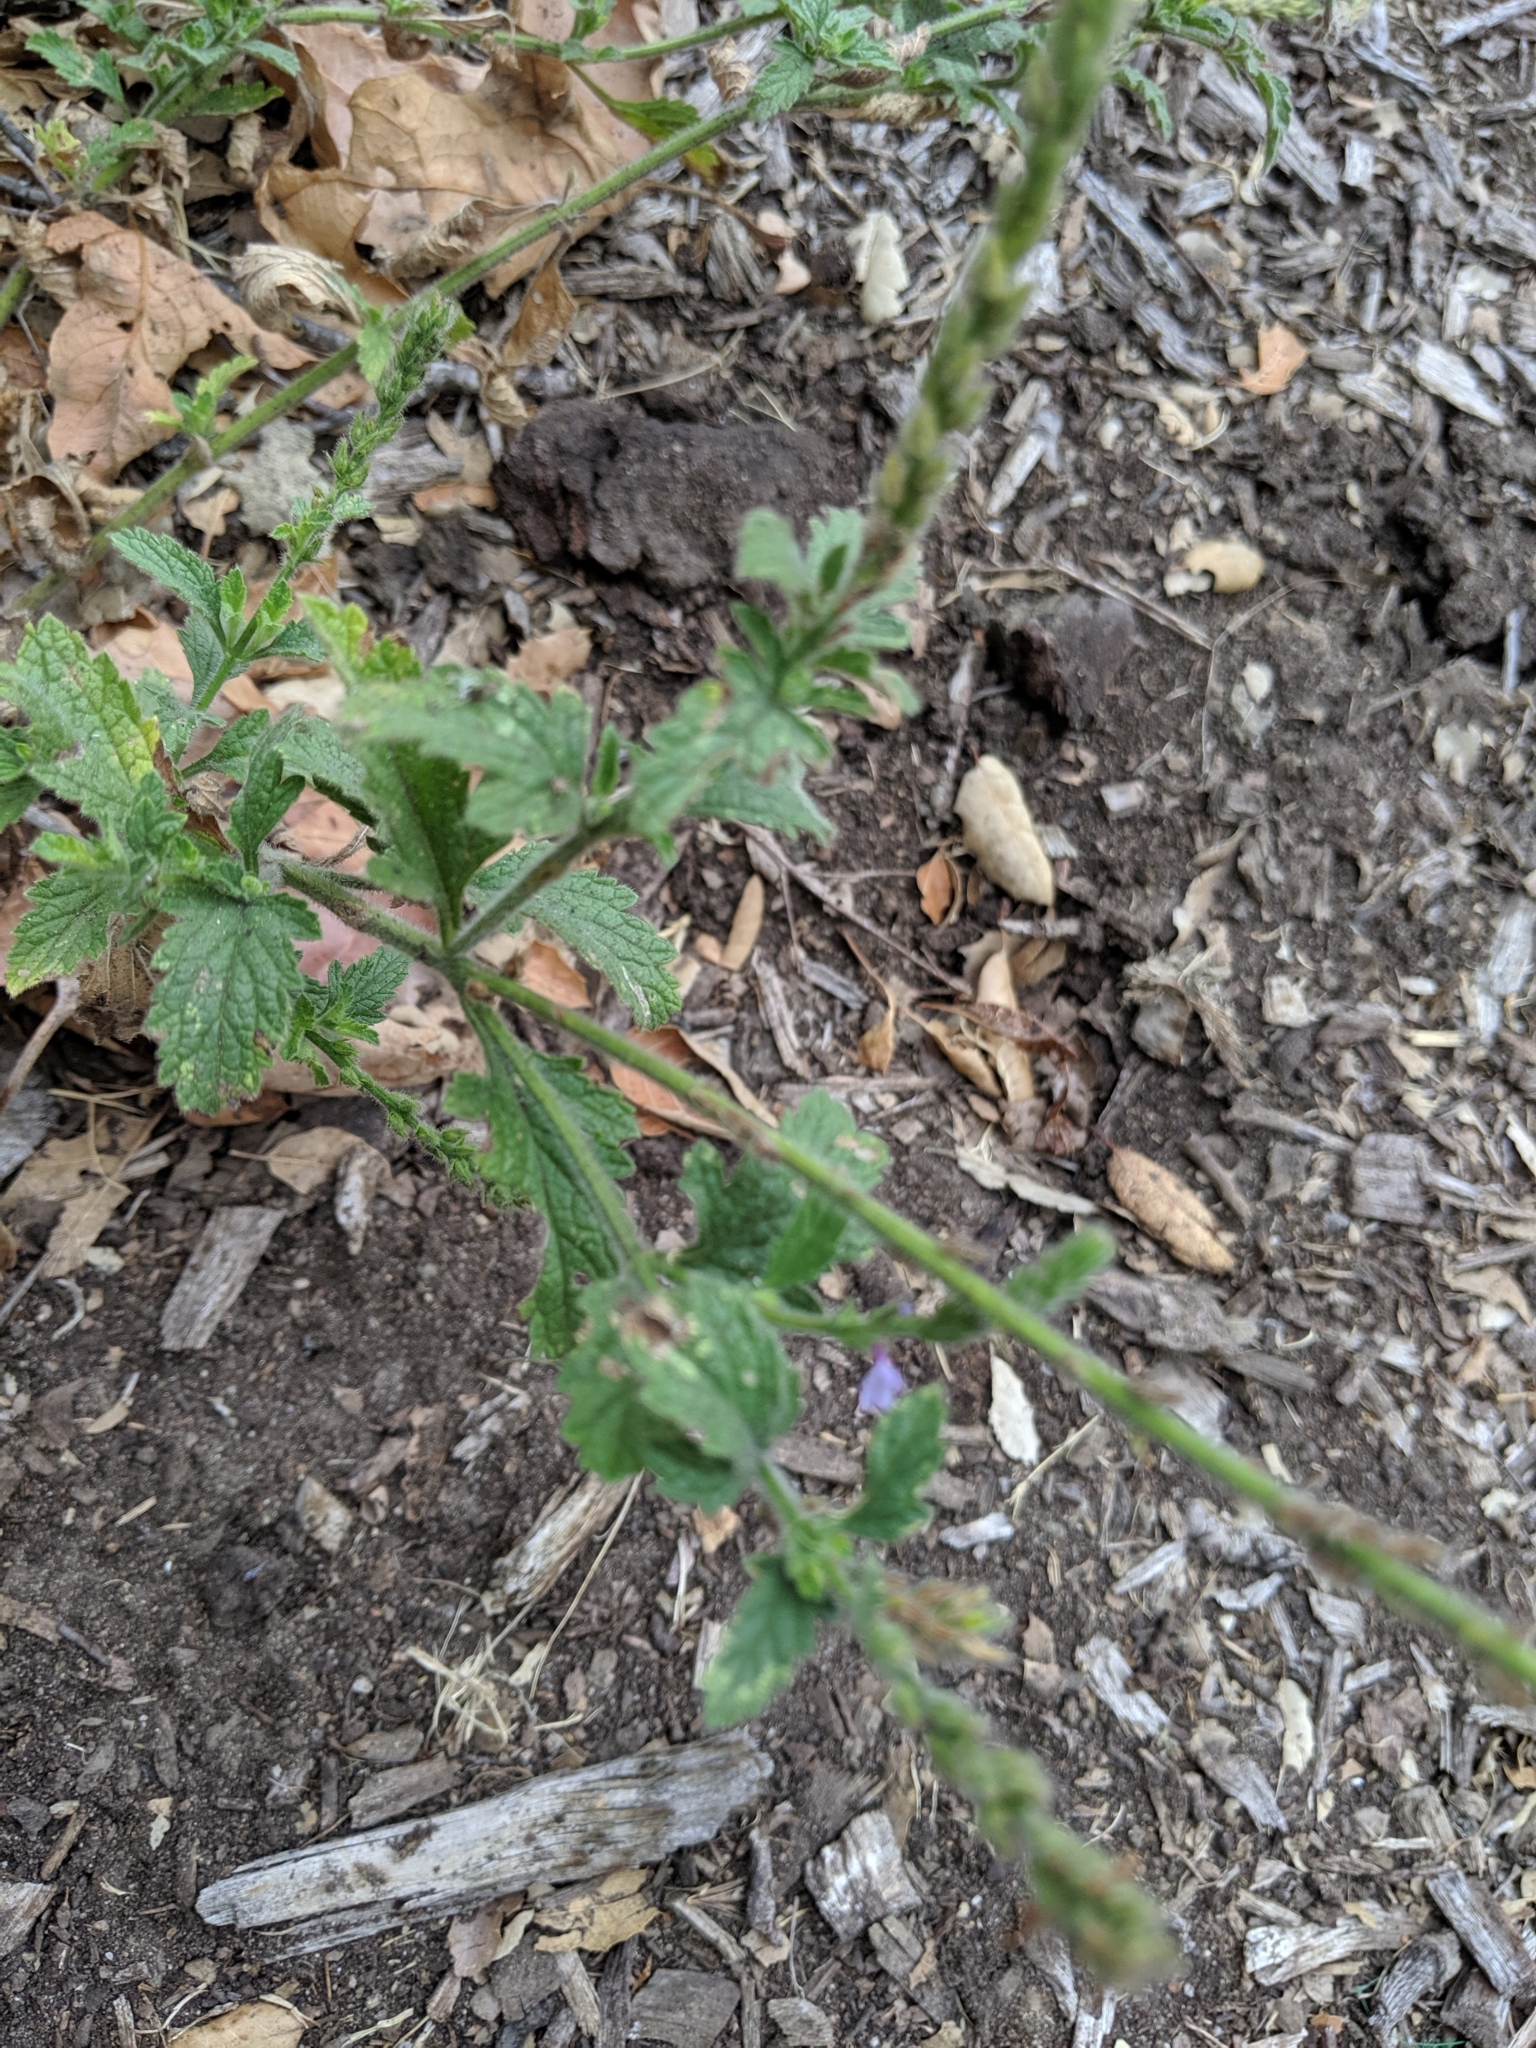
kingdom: Plantae
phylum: Tracheophyta
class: Magnoliopsida
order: Lamiales
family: Verbenaceae
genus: Verbena
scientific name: Verbena lasiostachys
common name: Vervain
